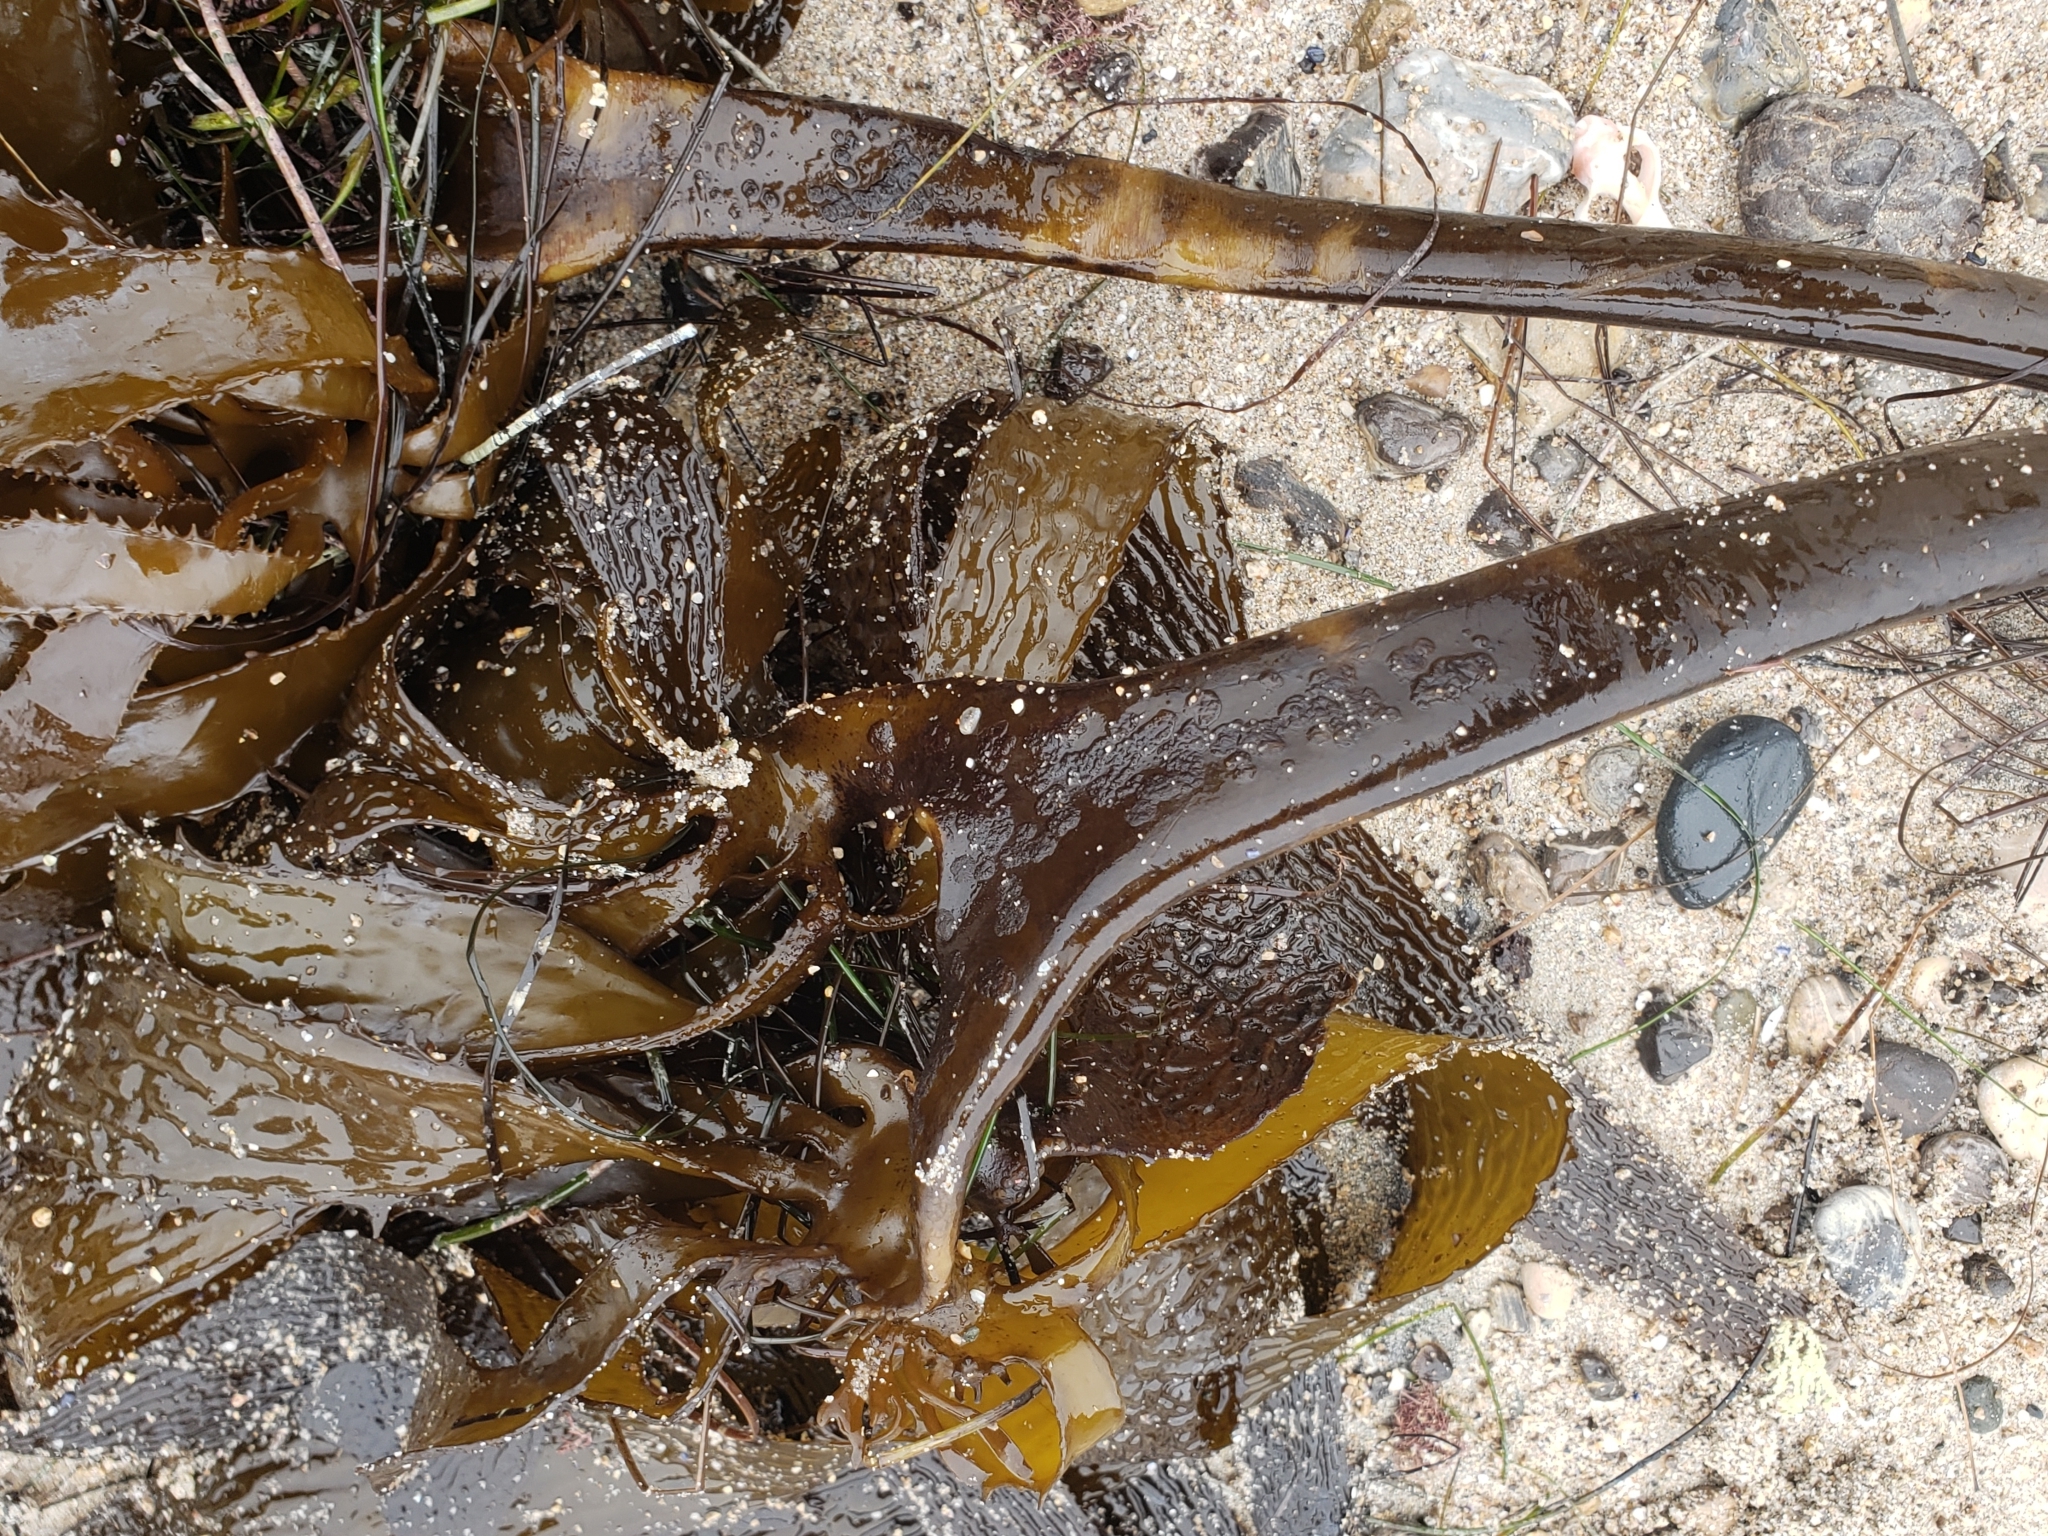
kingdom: Chromista
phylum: Ochrophyta
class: Phaeophyceae
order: Laminariales
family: Lessoniaceae
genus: Eisenia
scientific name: Eisenia arborea
